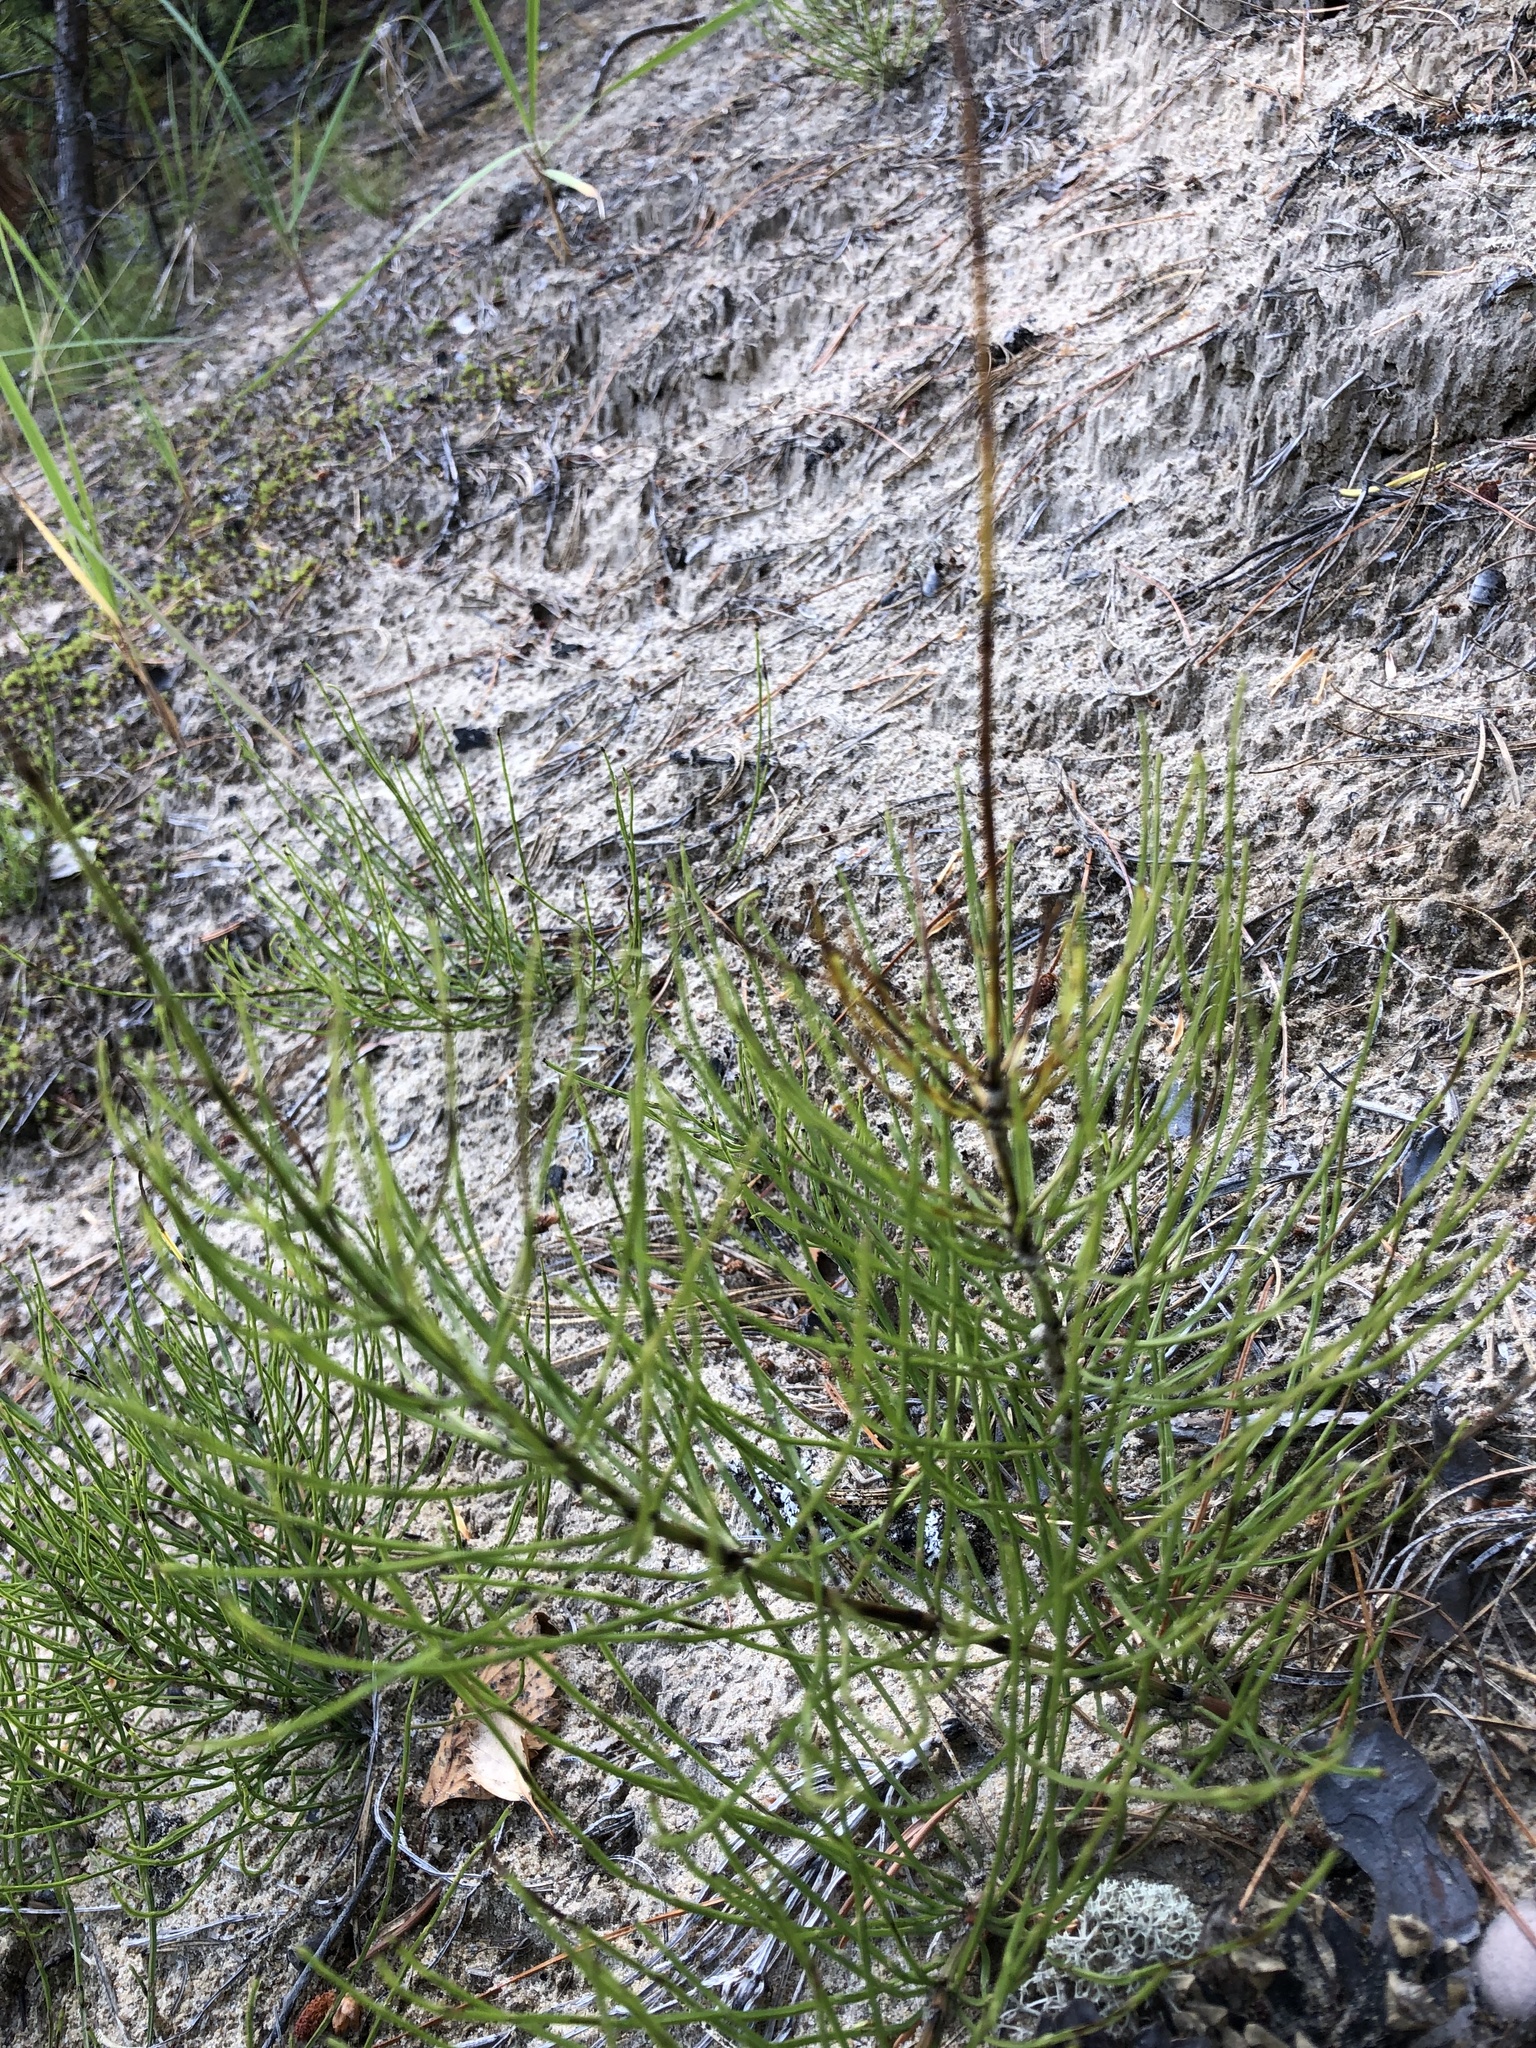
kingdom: Plantae
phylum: Tracheophyta
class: Polypodiopsida
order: Equisetales
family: Equisetaceae
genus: Equisetum
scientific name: Equisetum arvense
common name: Field horsetail
